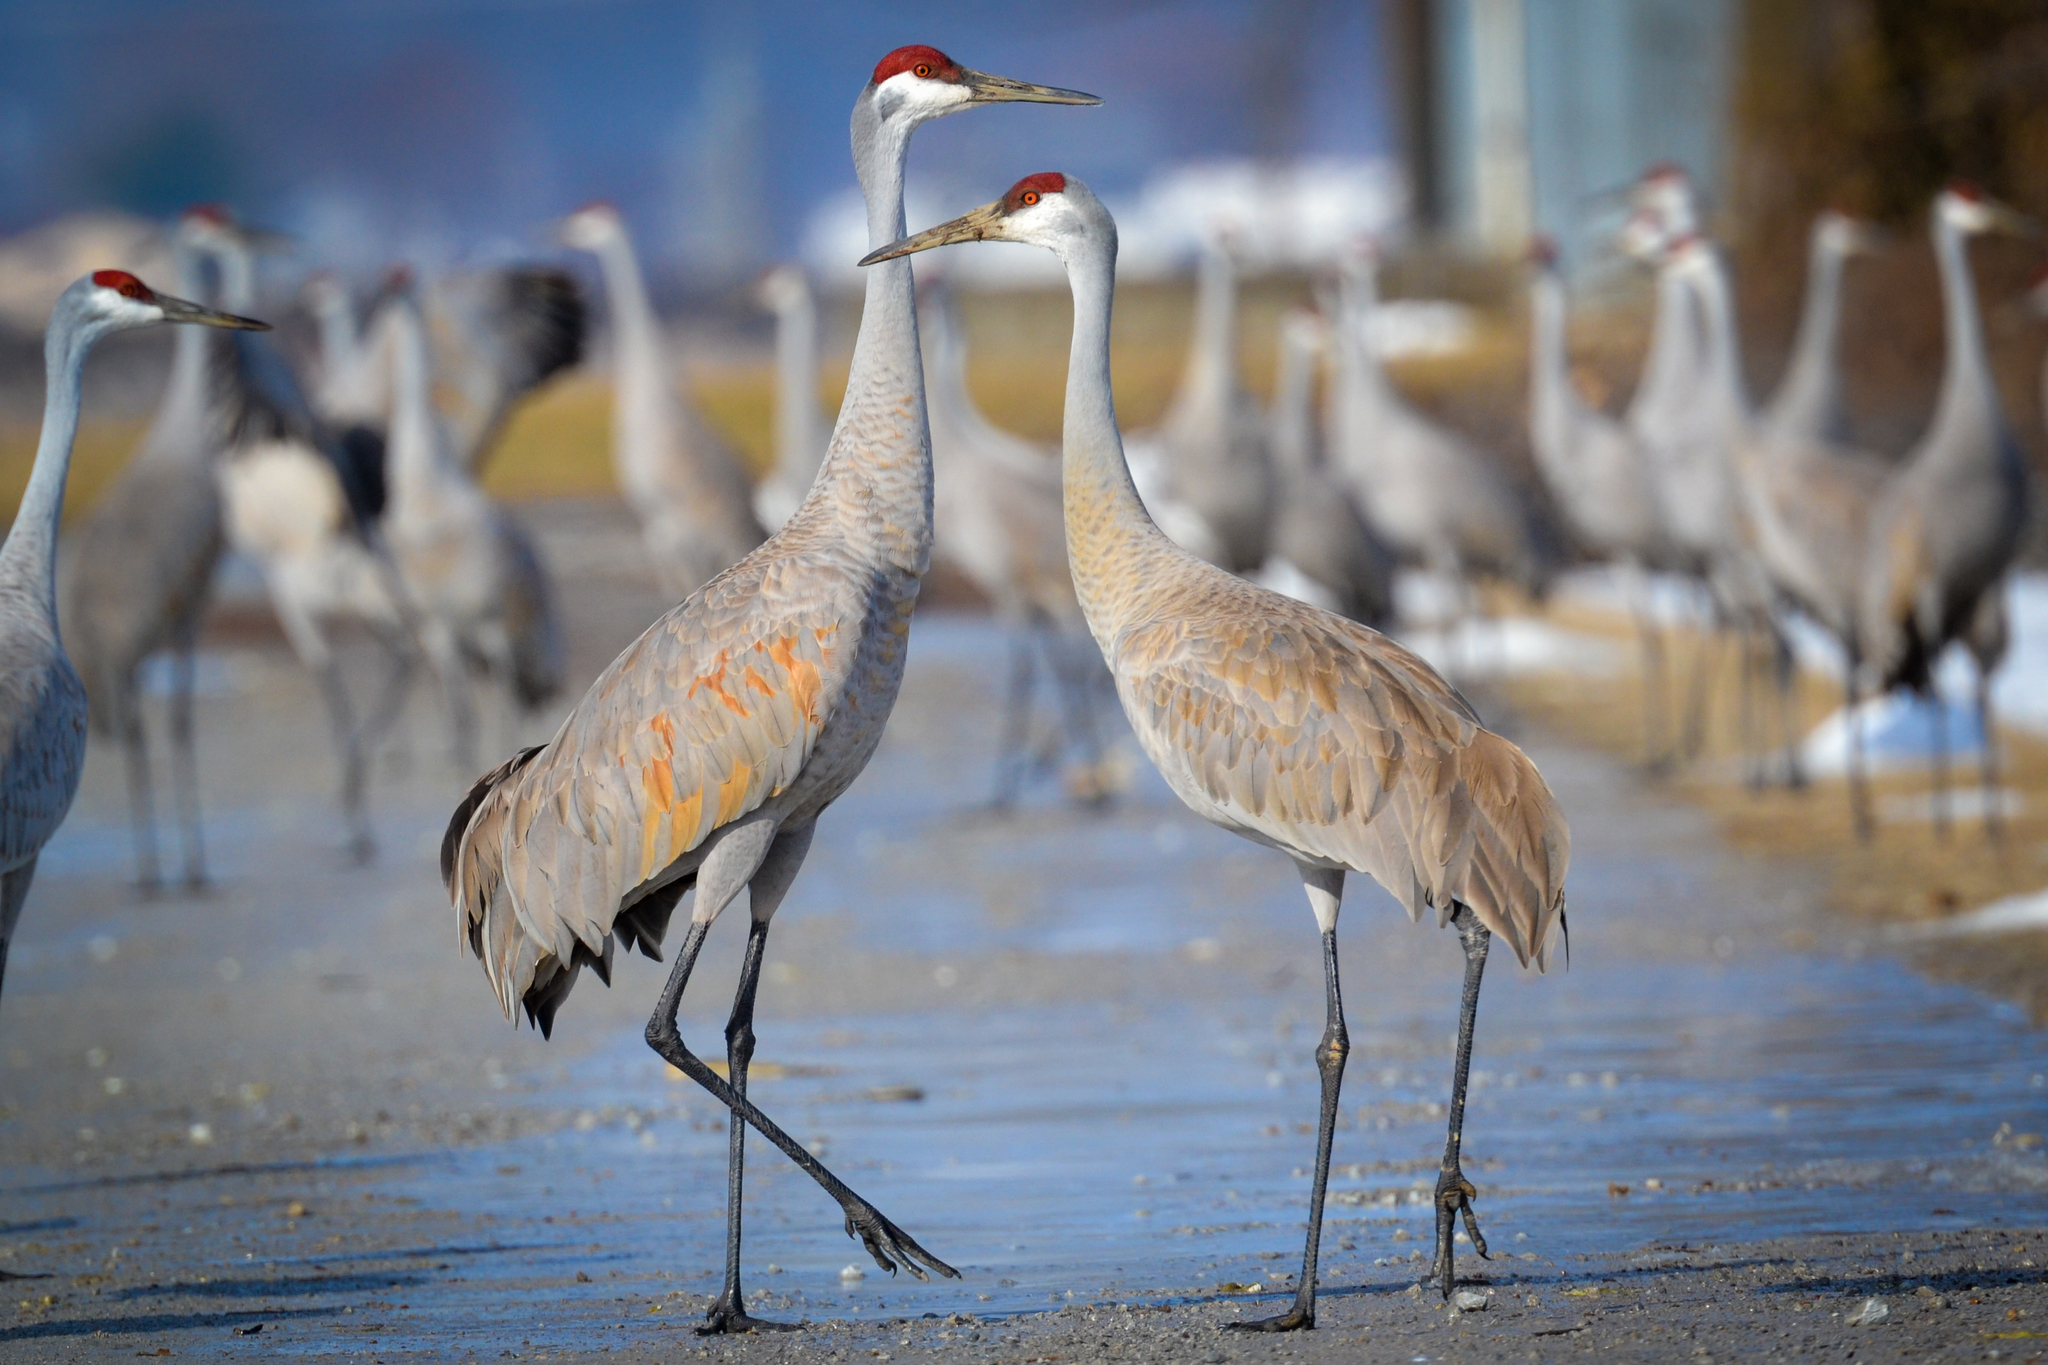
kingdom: Animalia
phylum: Chordata
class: Aves
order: Gruiformes
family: Gruidae
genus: Grus
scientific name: Grus canadensis
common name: Sandhill crane
